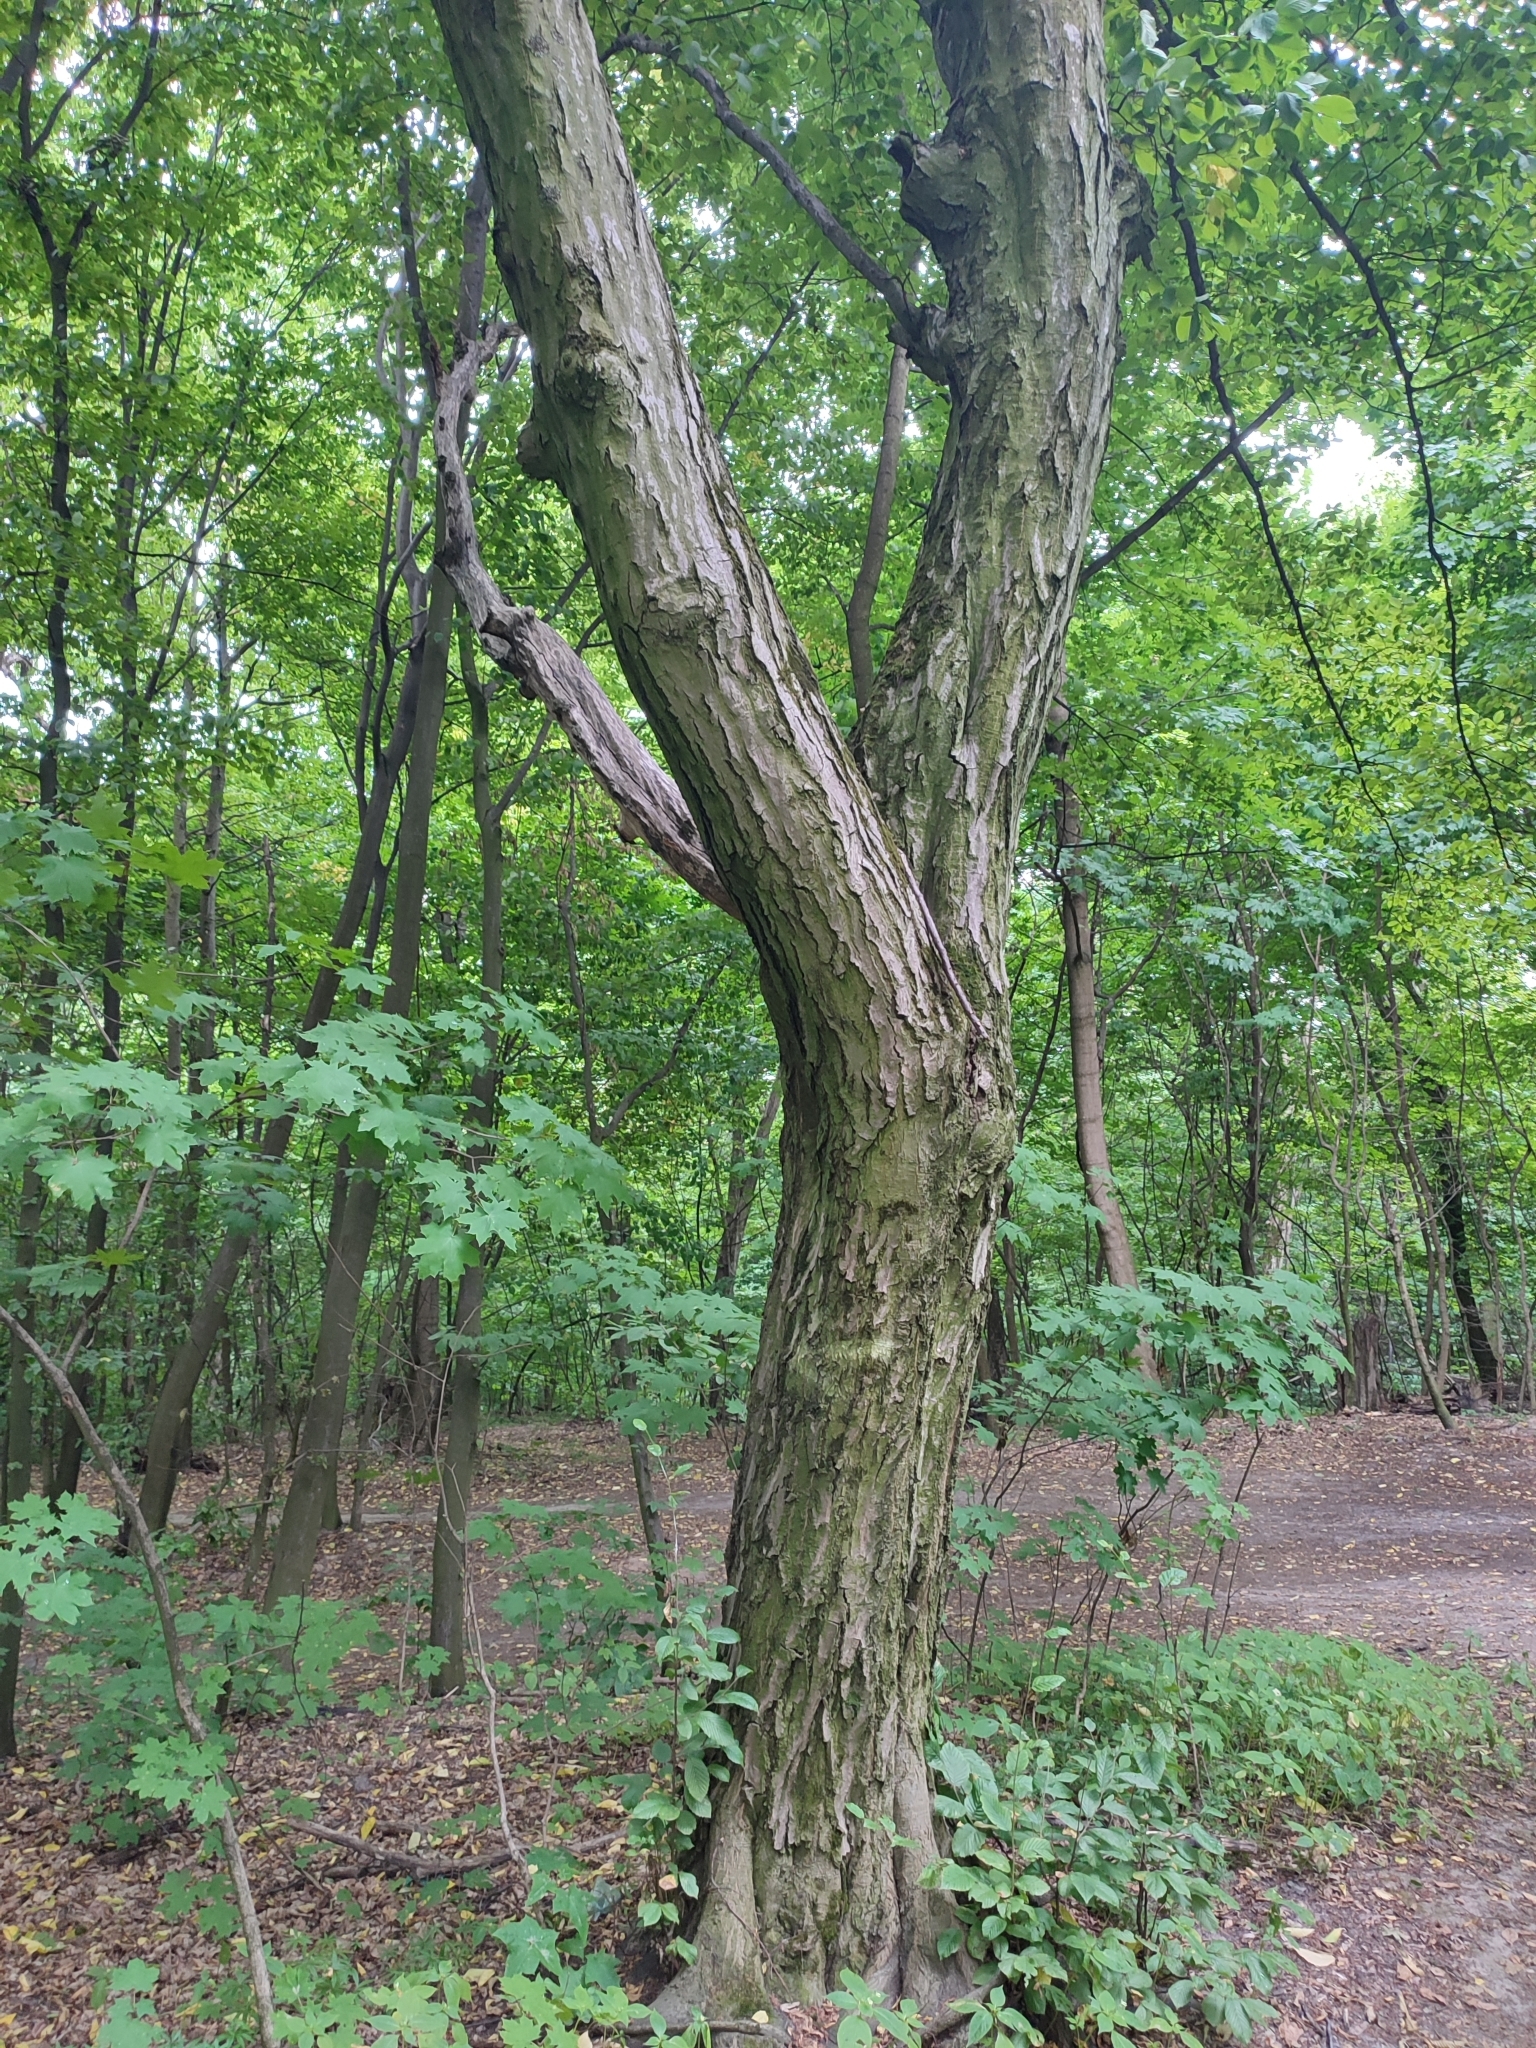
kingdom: Plantae
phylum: Tracheophyta
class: Magnoliopsida
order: Fagales
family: Betulaceae
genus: Carpinus
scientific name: Carpinus betulus
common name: Hornbeam
